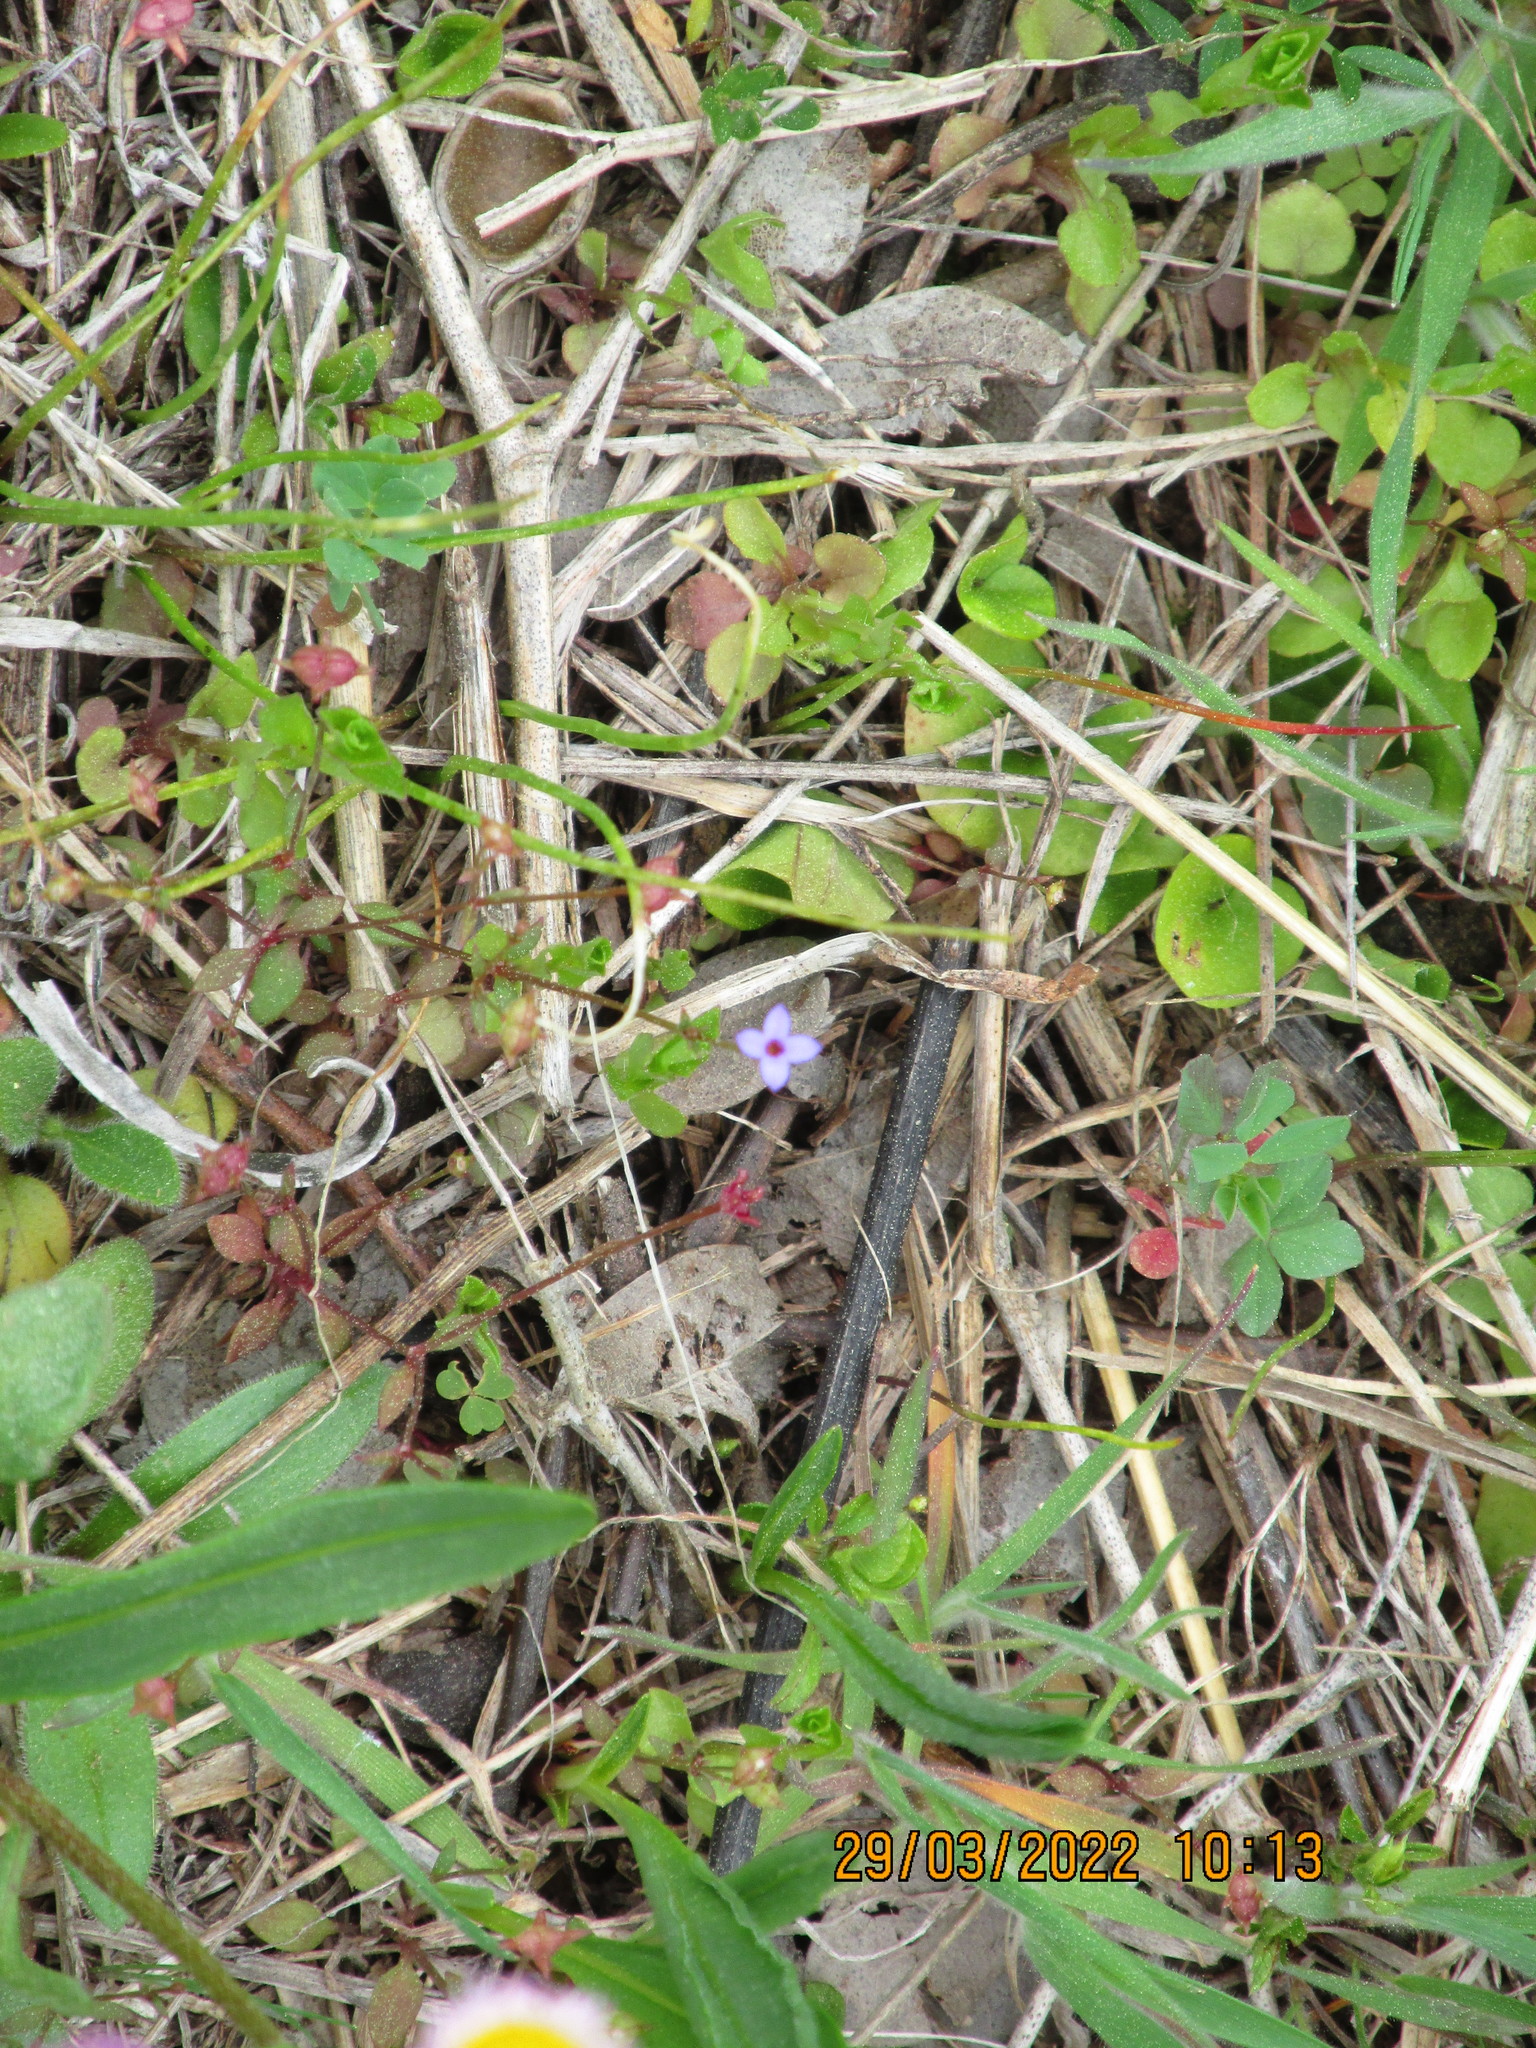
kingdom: Plantae
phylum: Tracheophyta
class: Magnoliopsida
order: Gentianales
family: Rubiaceae
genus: Houstonia
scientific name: Houstonia pusilla
